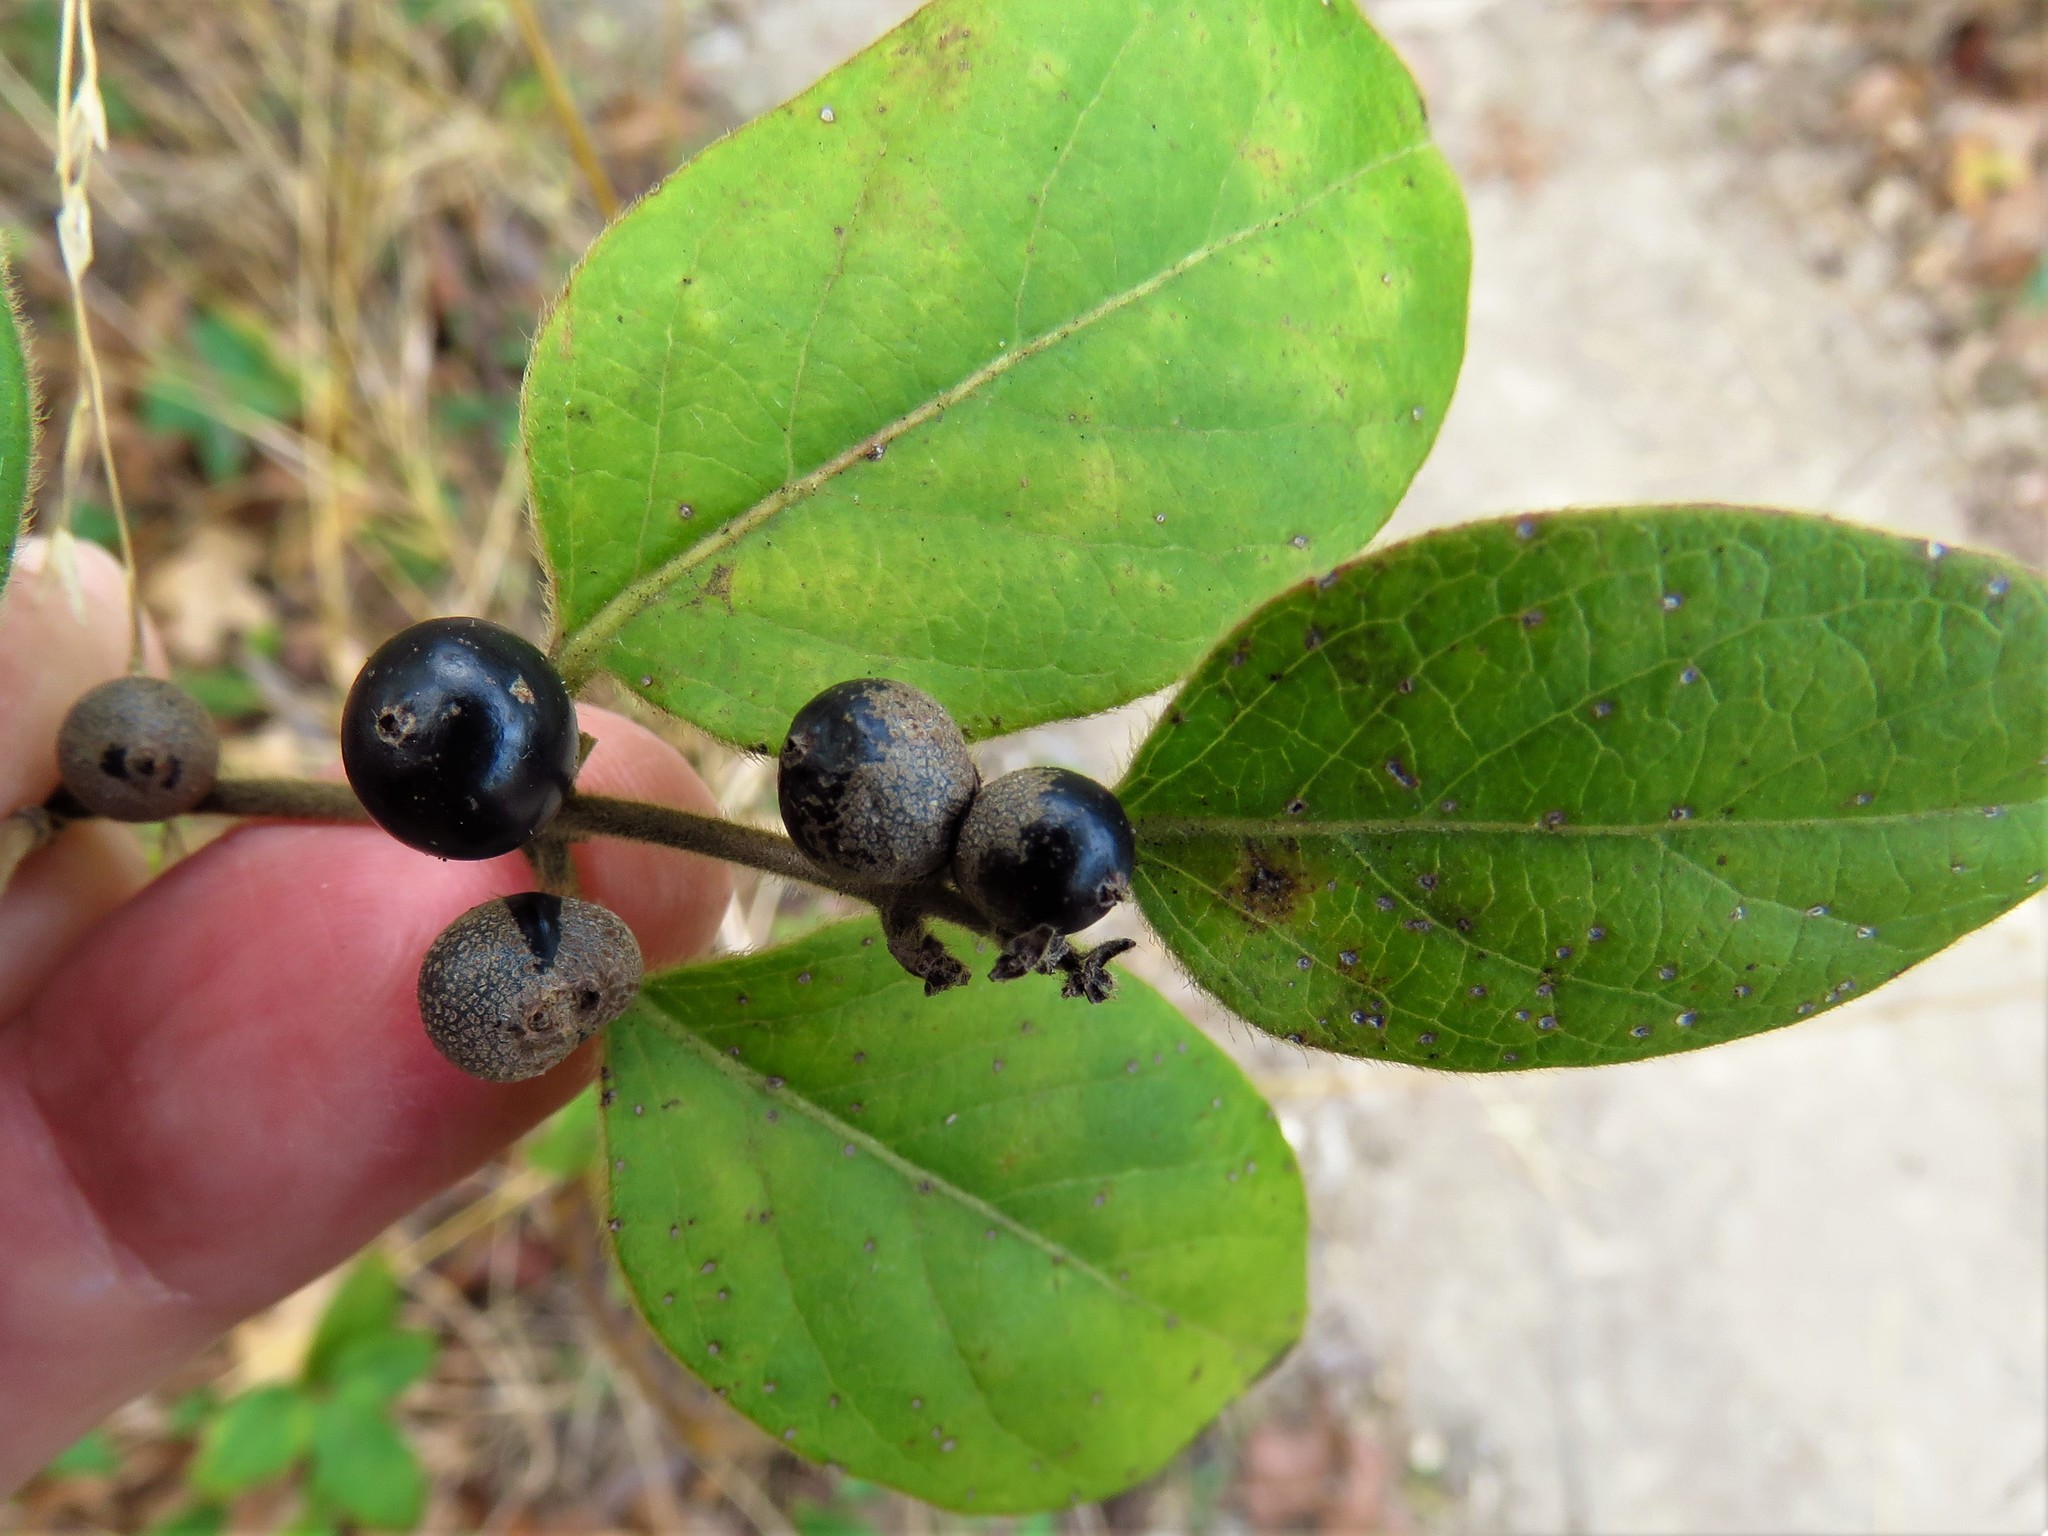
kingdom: Plantae
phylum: Tracheophyta
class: Magnoliopsida
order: Dipsacales
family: Caprifoliaceae
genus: Lonicera
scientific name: Lonicera japonica
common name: Japanese honeysuckle
